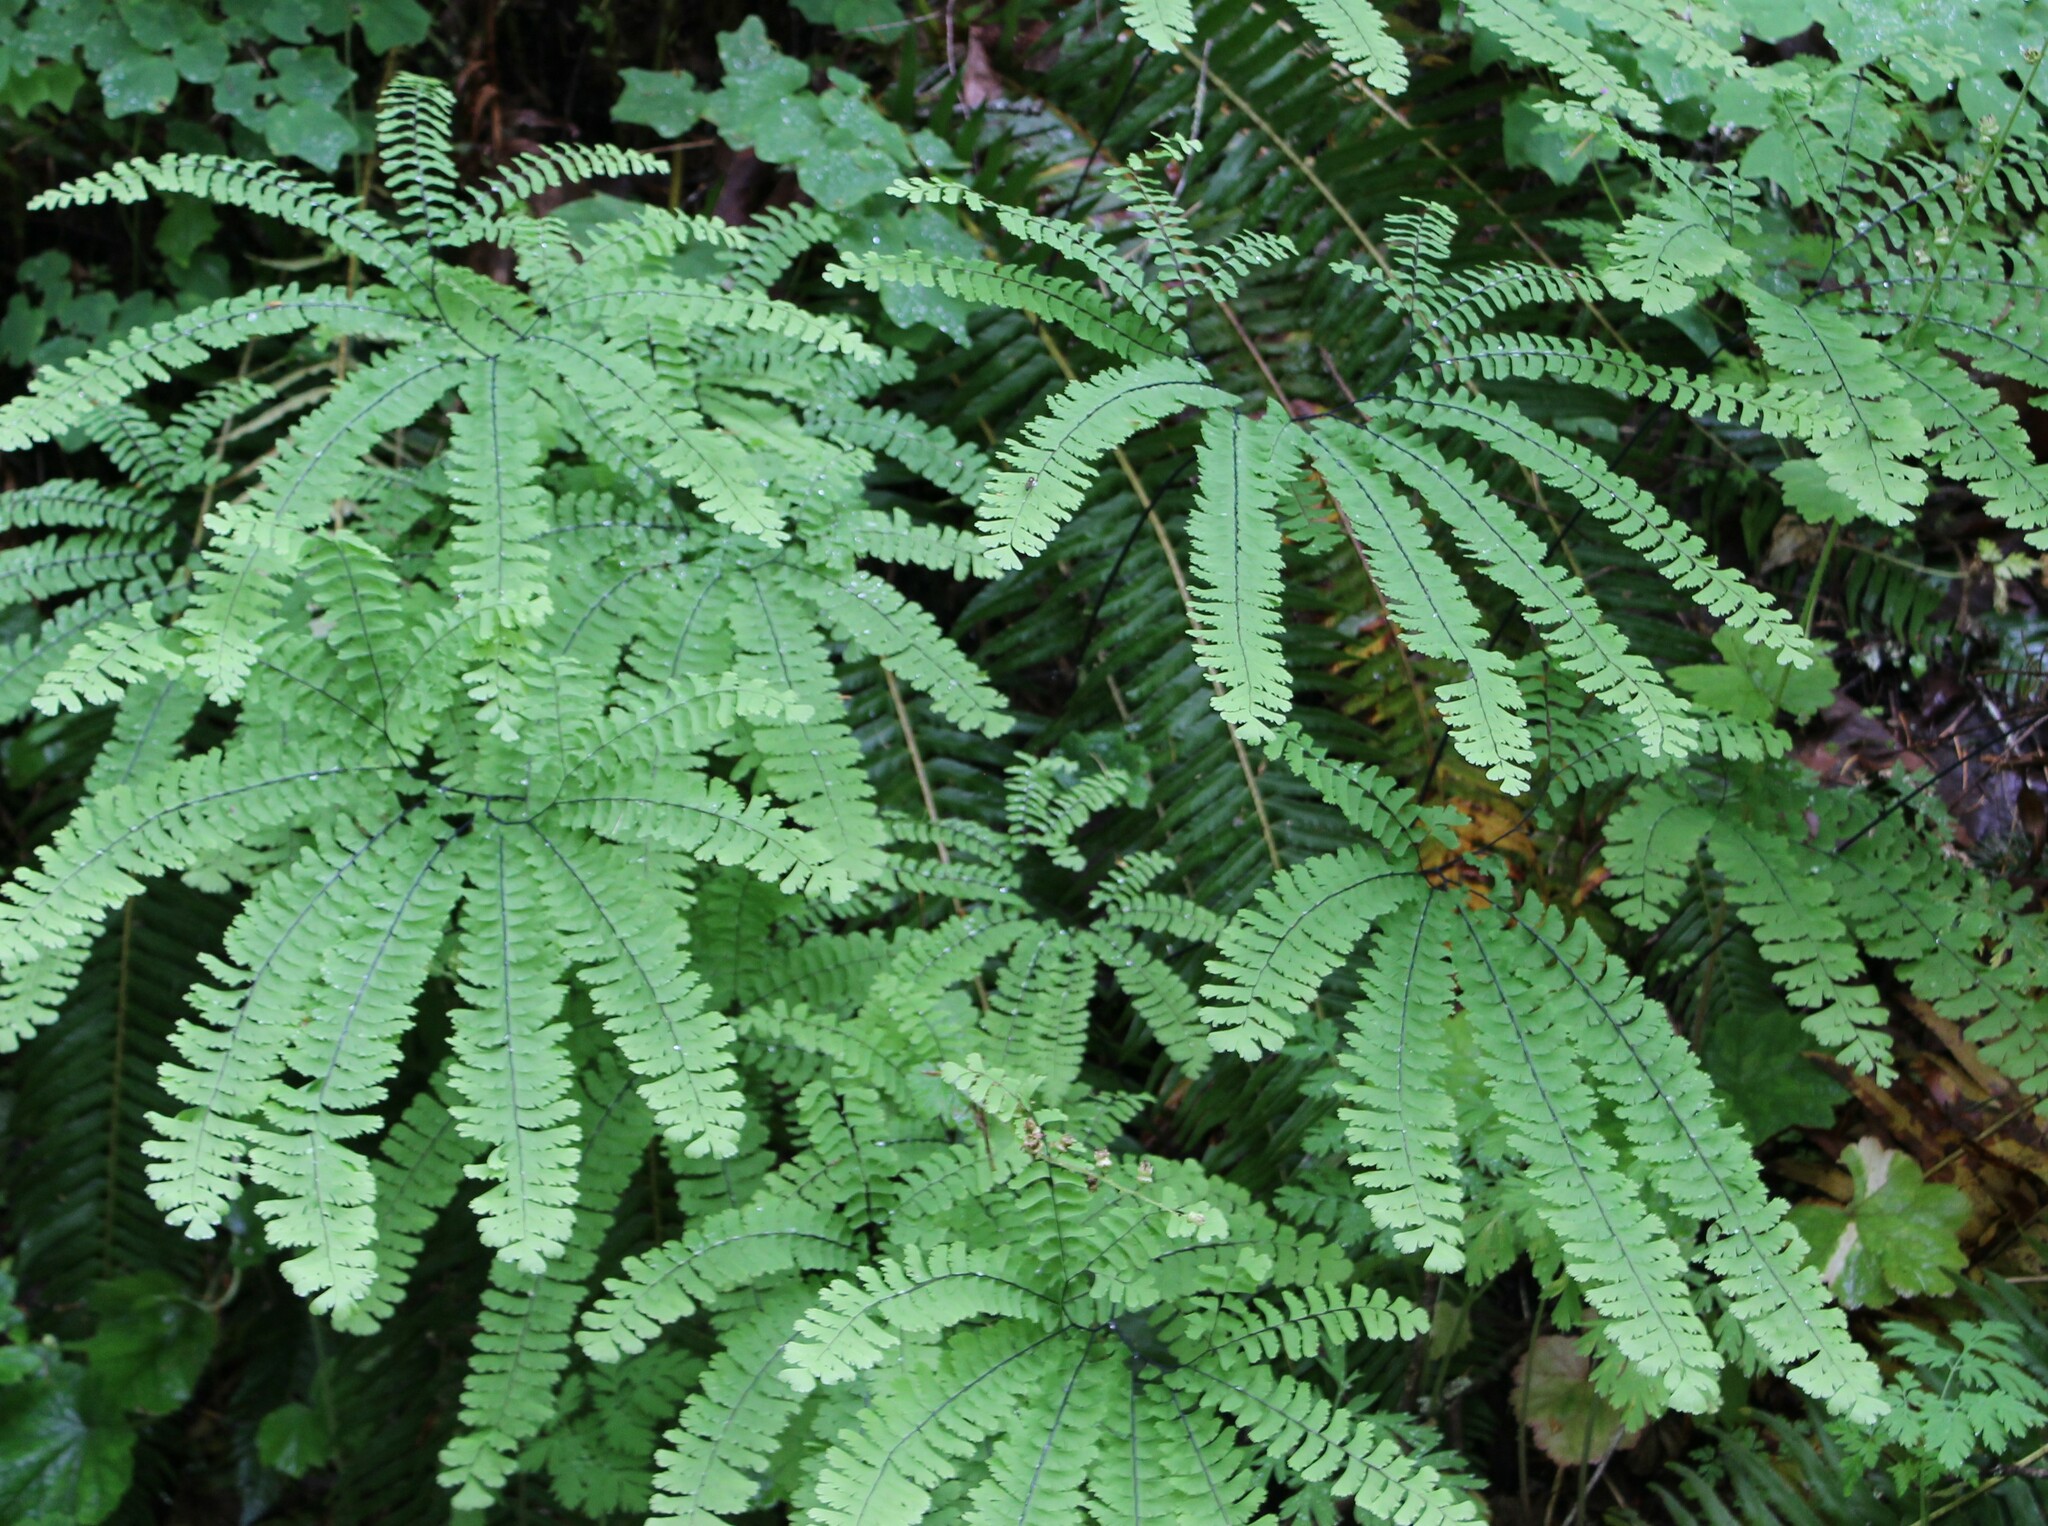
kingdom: Plantae
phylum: Tracheophyta
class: Polypodiopsida
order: Polypodiales
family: Pteridaceae
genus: Adiantum
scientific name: Adiantum aleuticum
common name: Aleutian maidenhair fern
